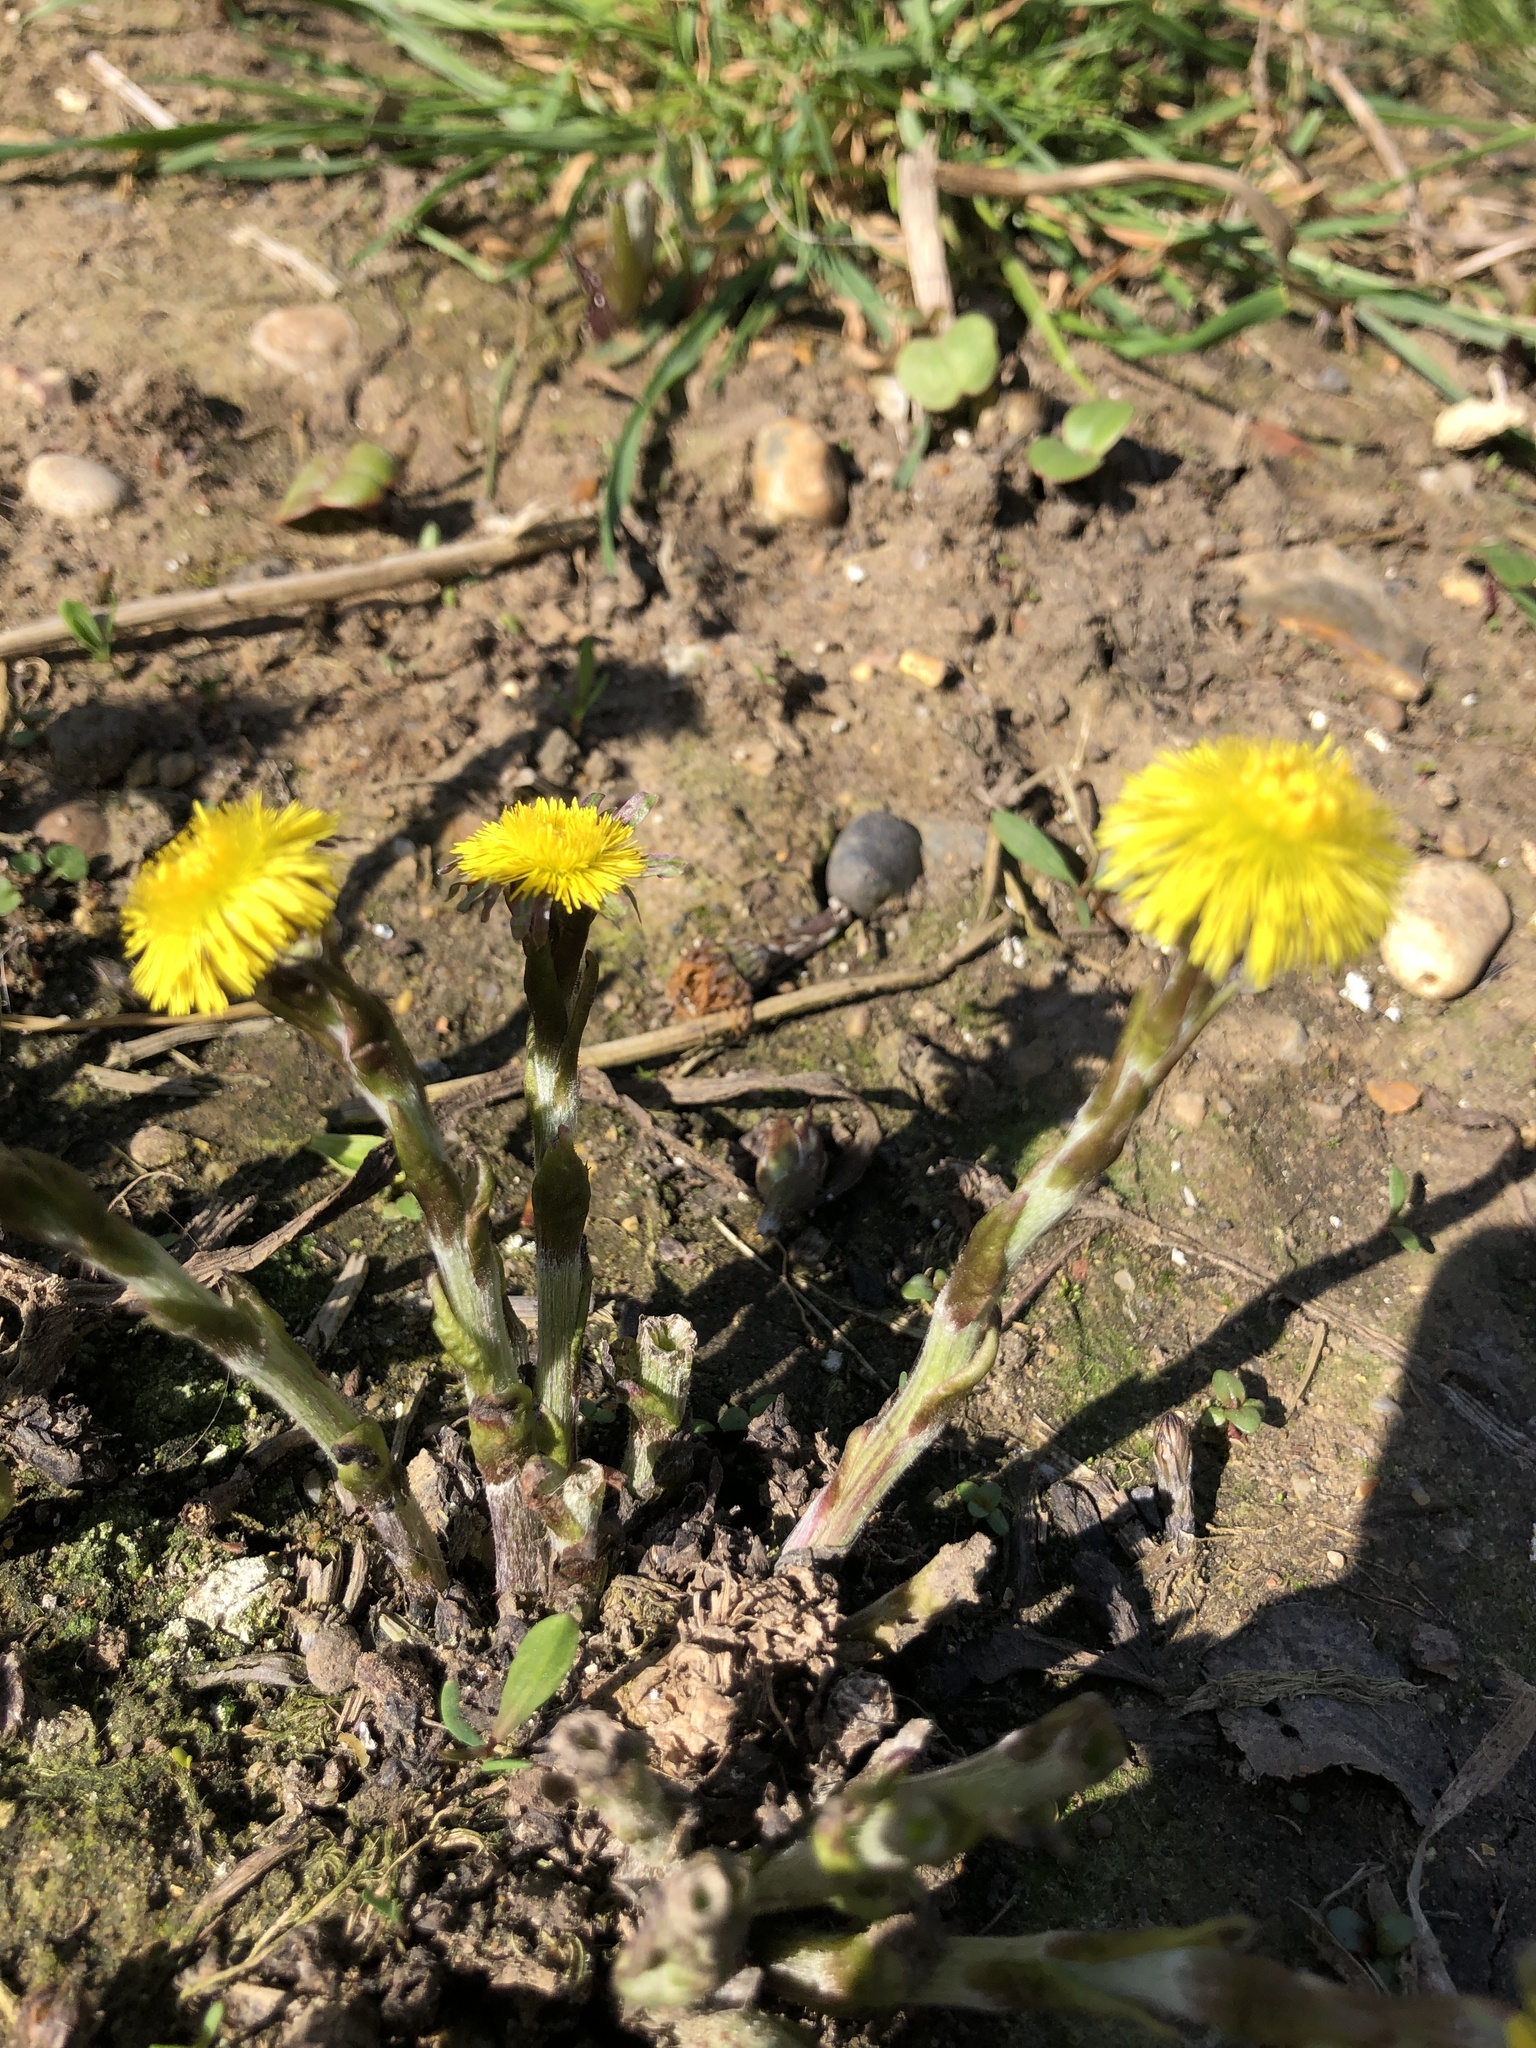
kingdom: Plantae
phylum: Tracheophyta
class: Magnoliopsida
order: Asterales
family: Asteraceae
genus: Tussilago
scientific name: Tussilago farfara
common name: Coltsfoot
